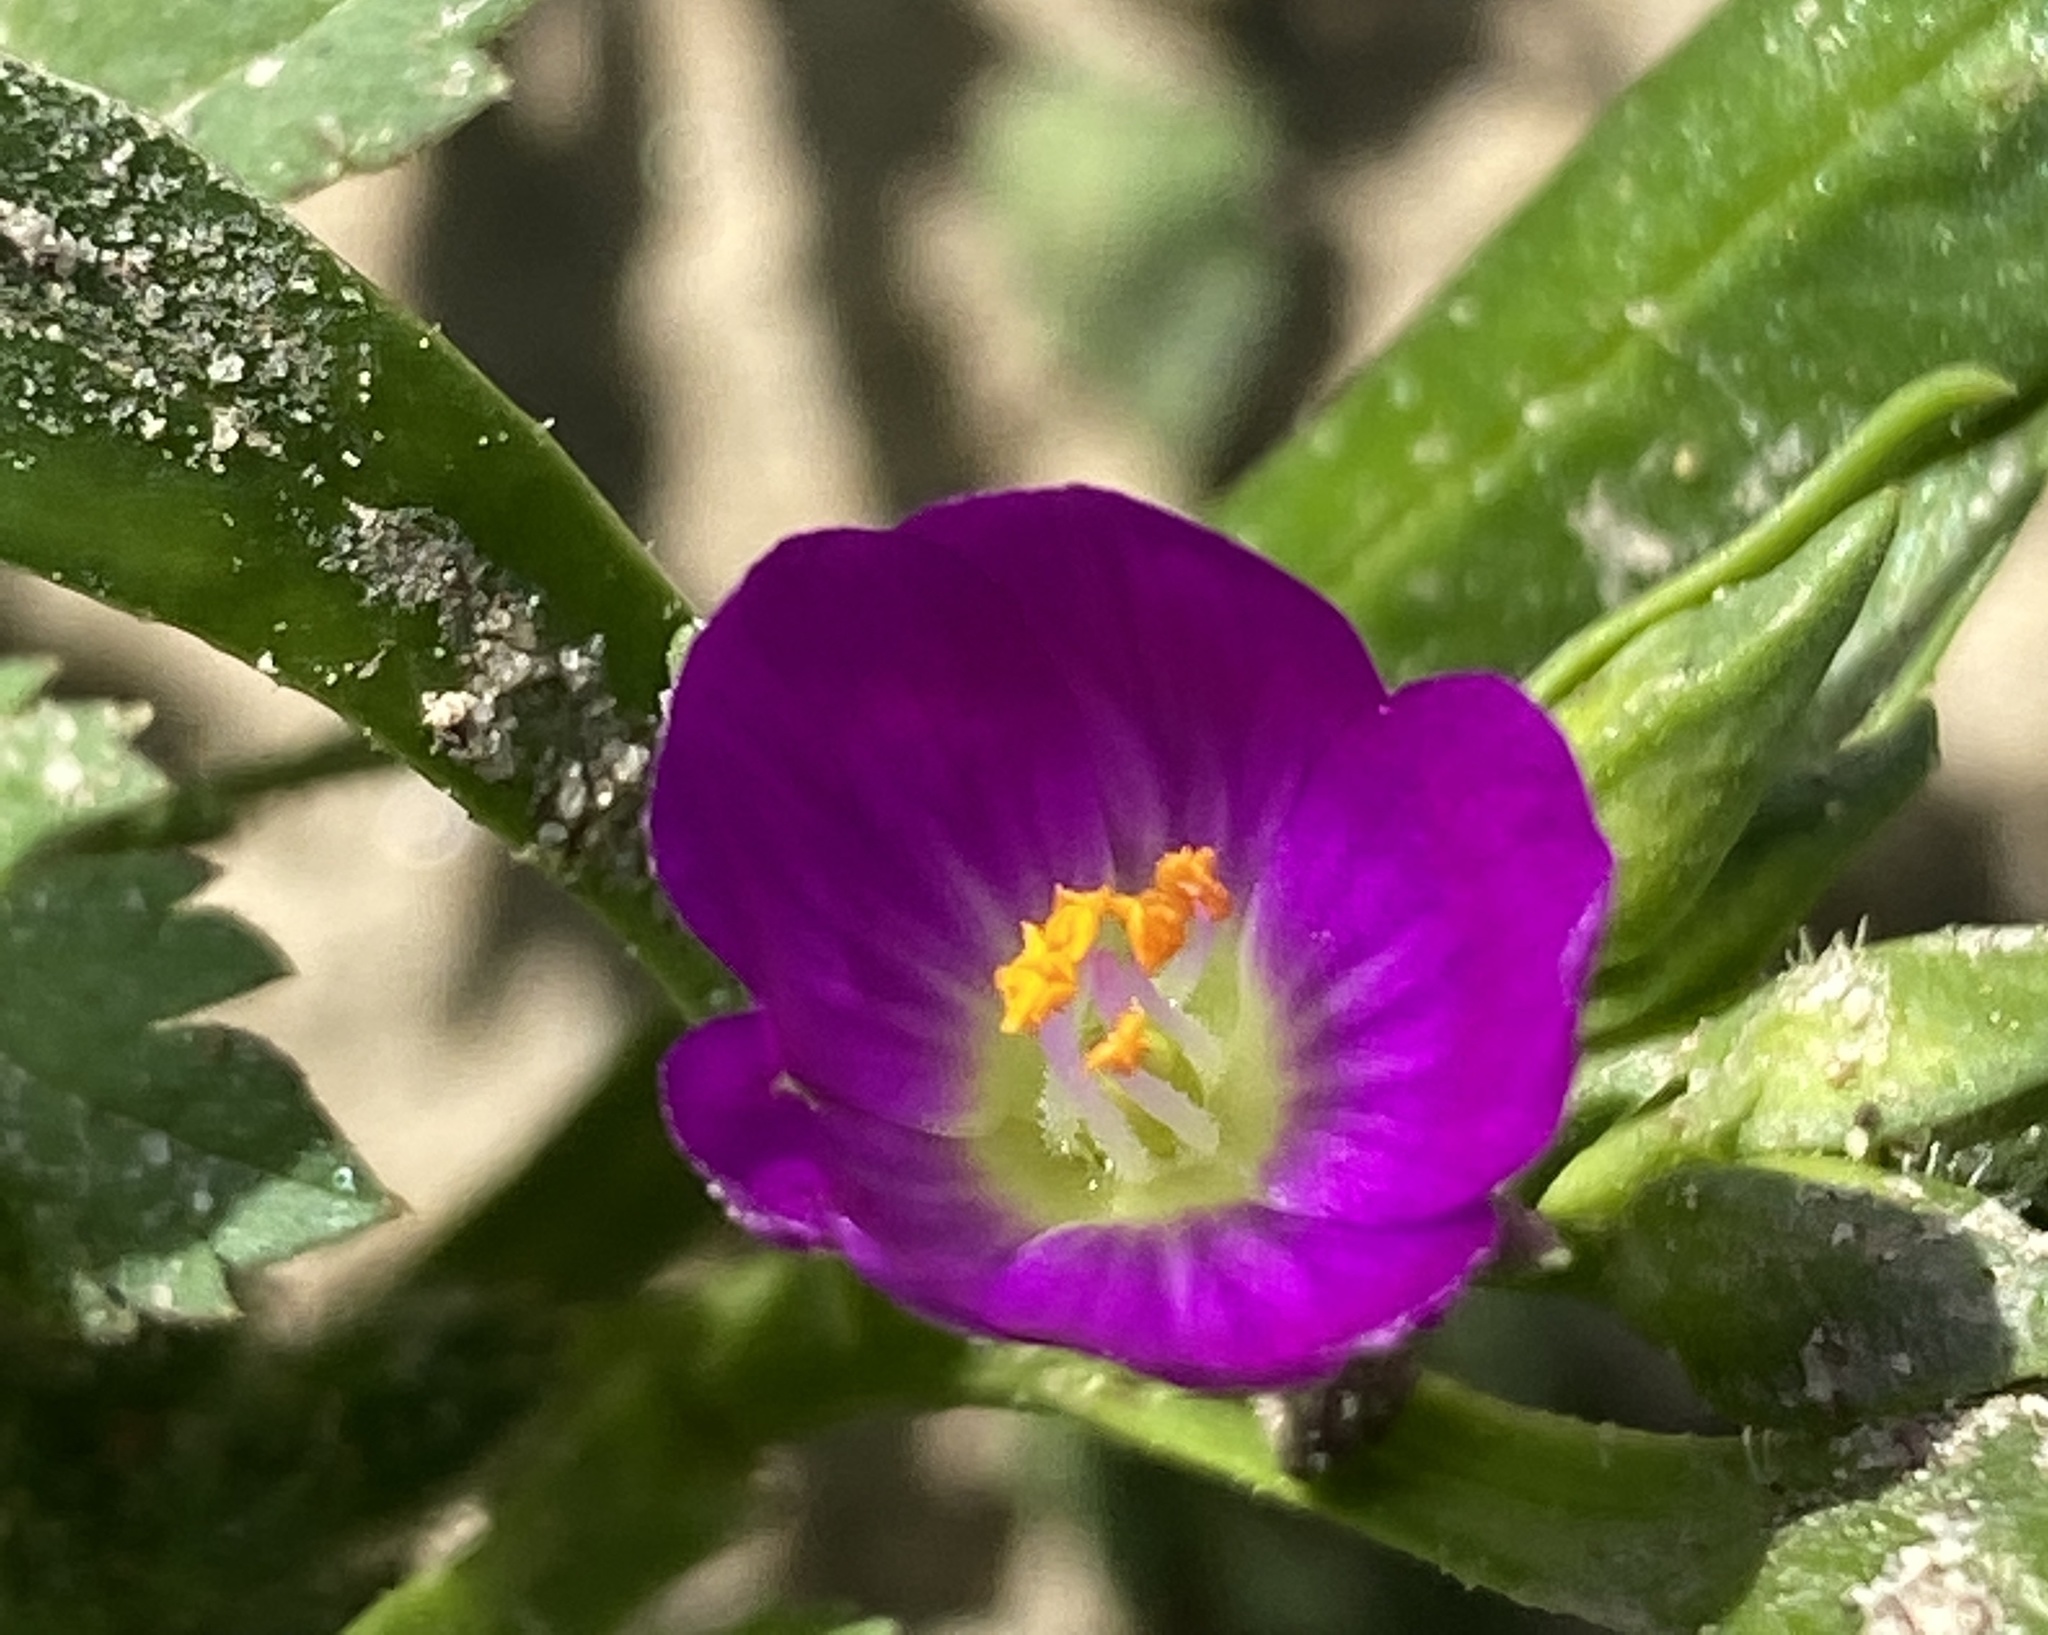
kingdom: Plantae
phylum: Tracheophyta
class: Magnoliopsida
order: Caryophyllales
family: Montiaceae
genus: Calandrinia
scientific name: Calandrinia menziesii
